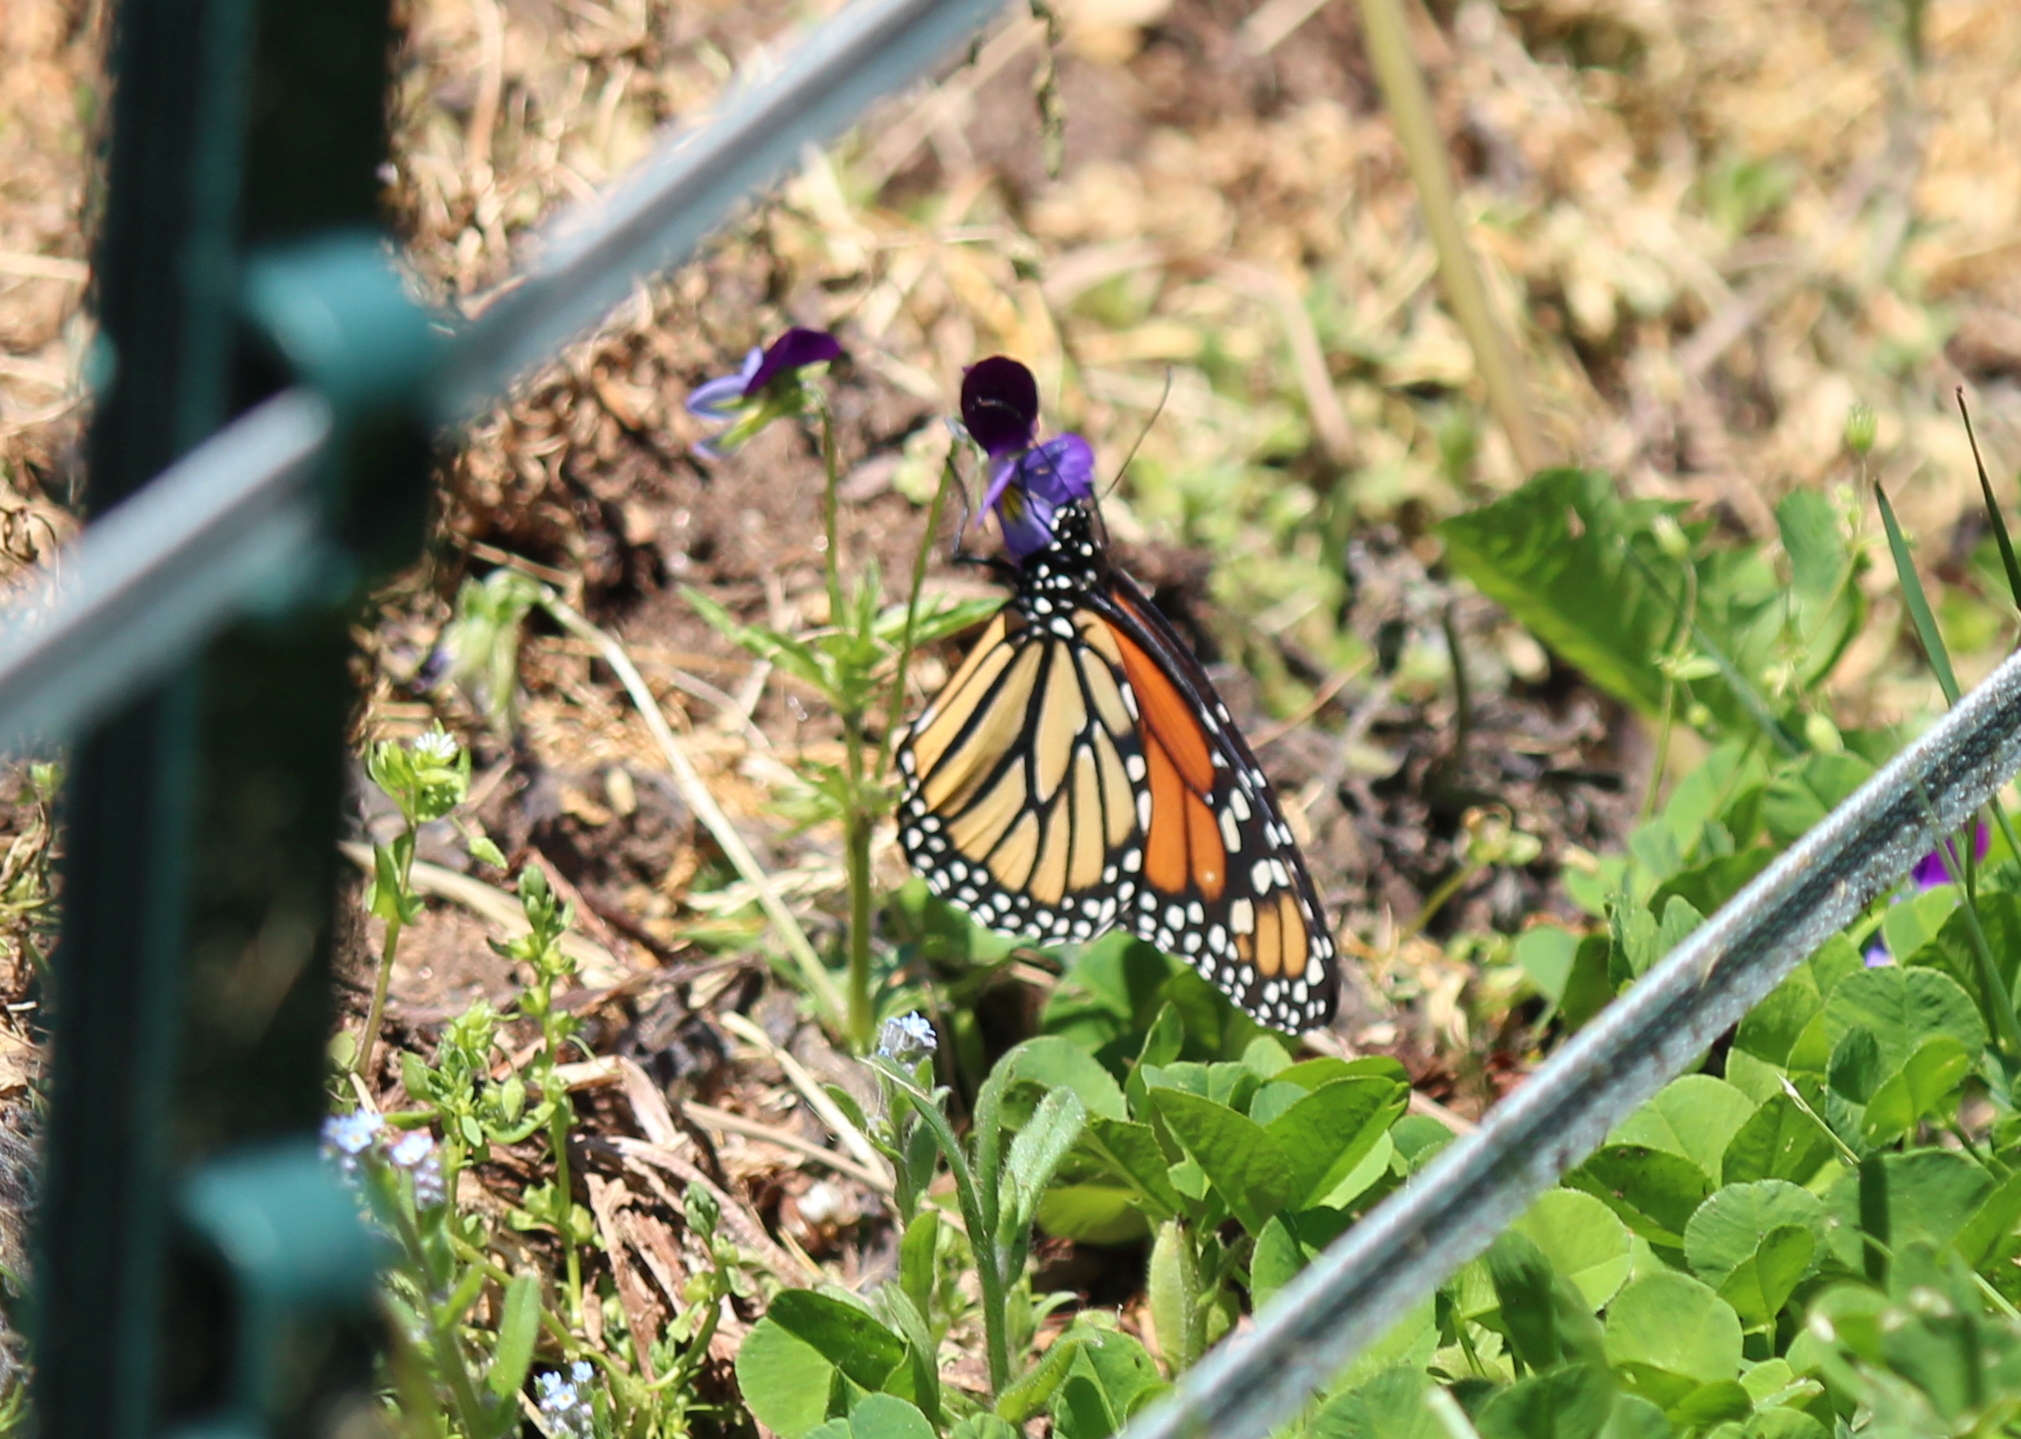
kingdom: Animalia
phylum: Arthropoda
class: Insecta
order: Lepidoptera
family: Nymphalidae
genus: Danaus
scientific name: Danaus plexippus
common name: Monarch
